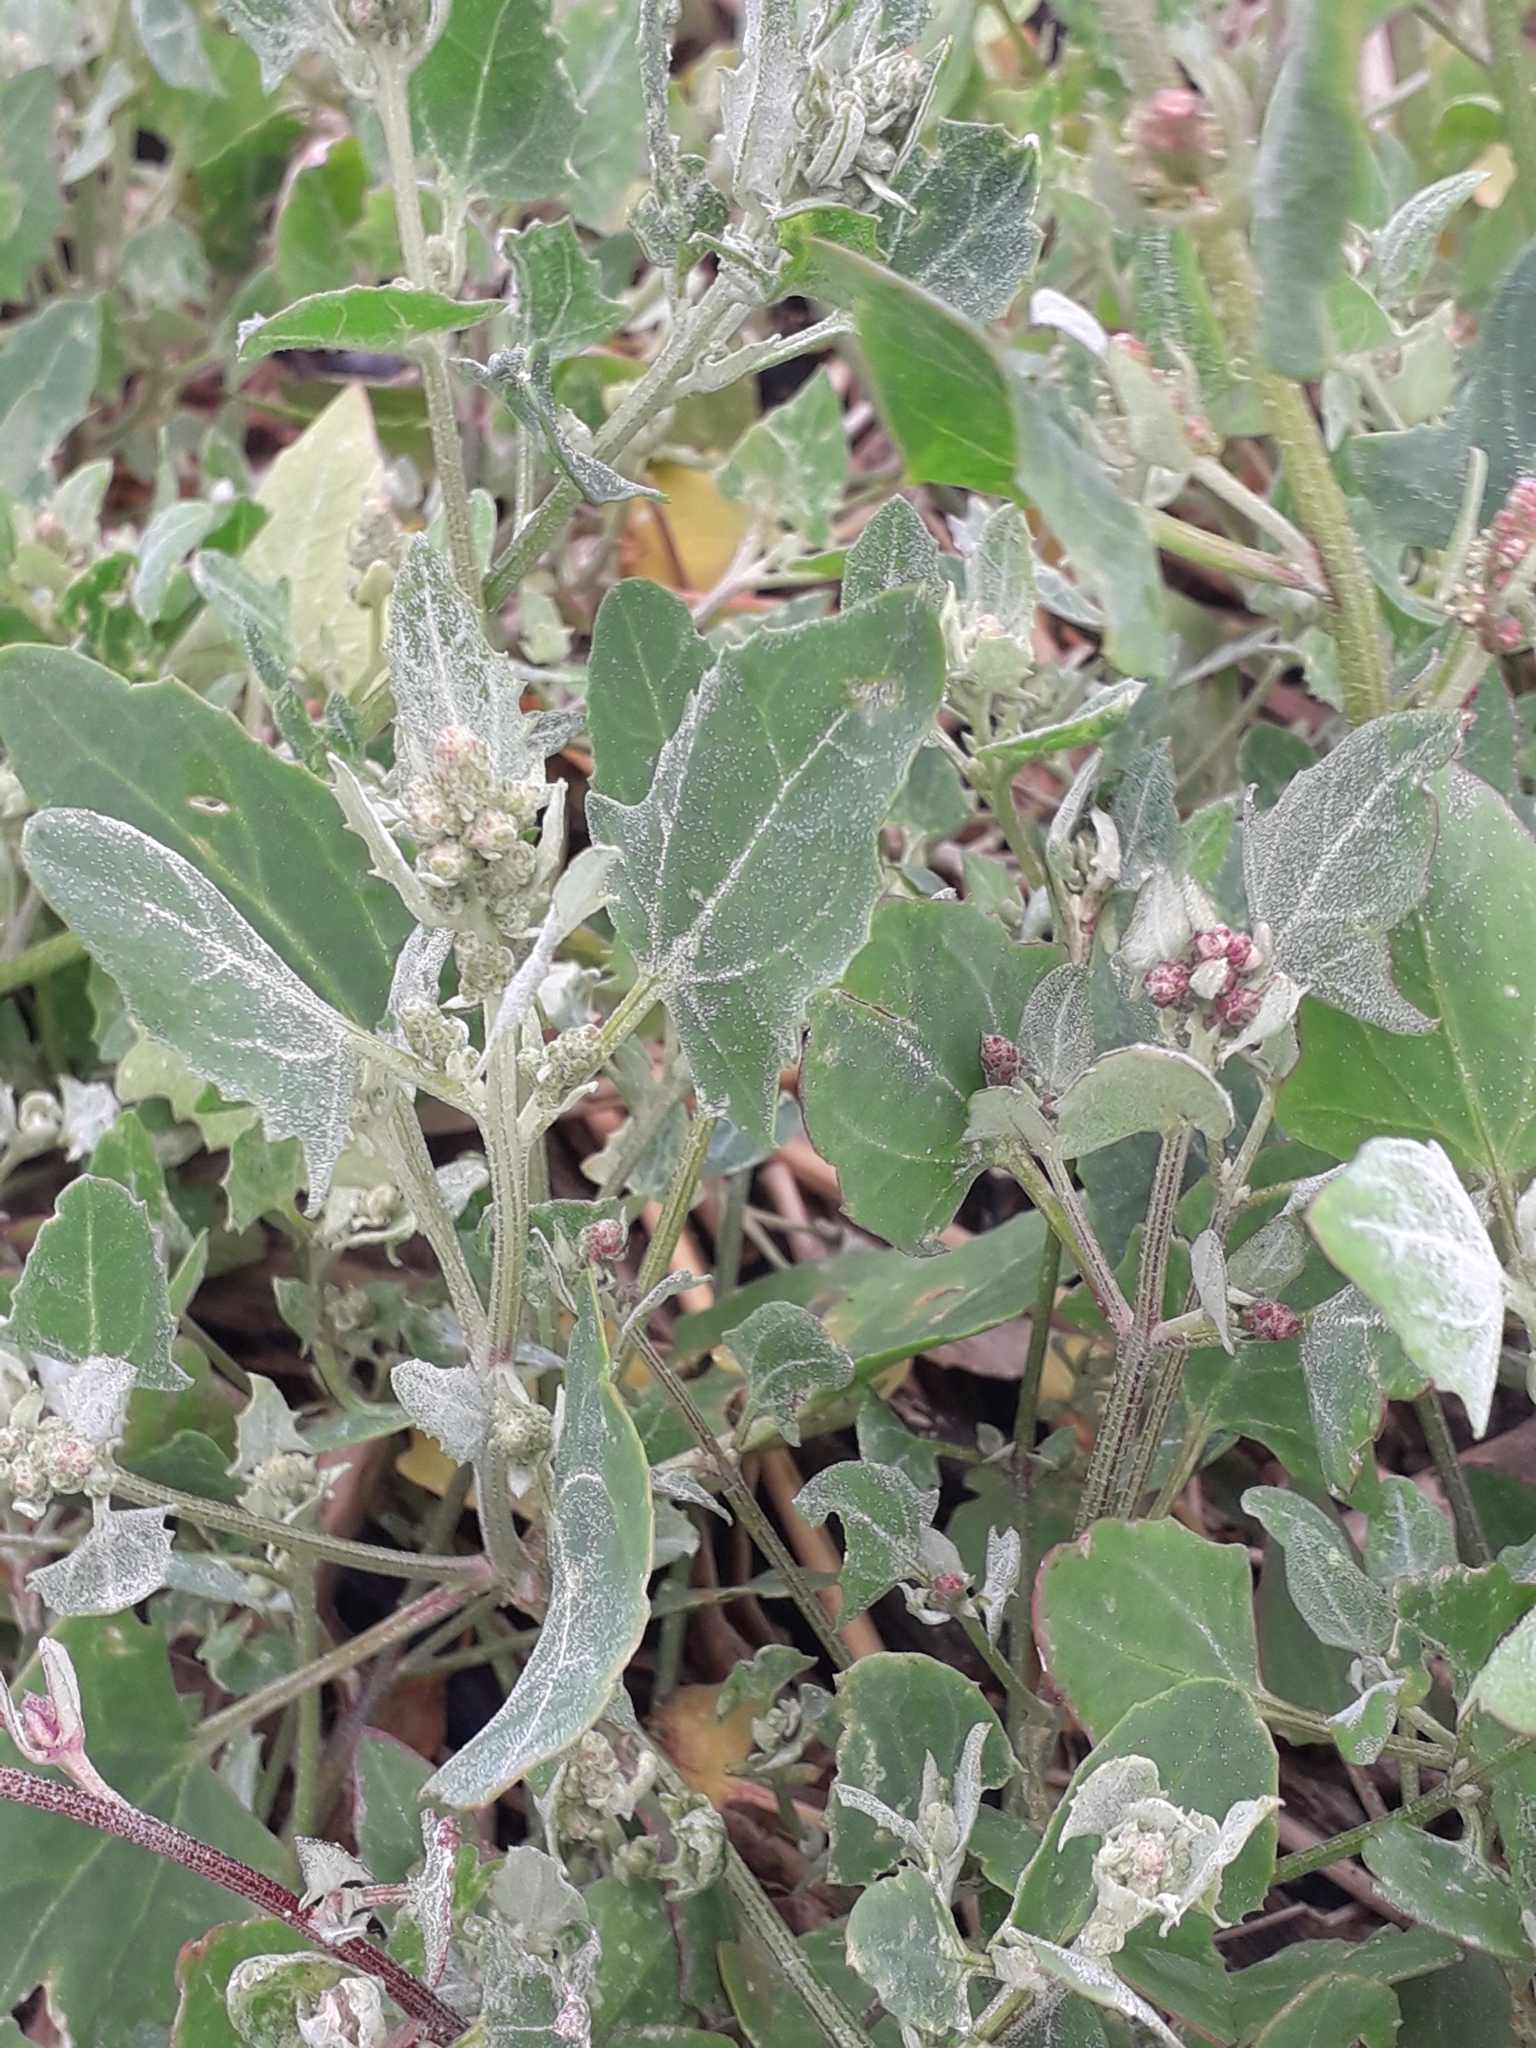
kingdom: Plantae
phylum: Tracheophyta
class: Magnoliopsida
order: Caryophyllales
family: Amaranthaceae
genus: Atriplex
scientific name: Atriplex laciniata
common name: Frosted orache
